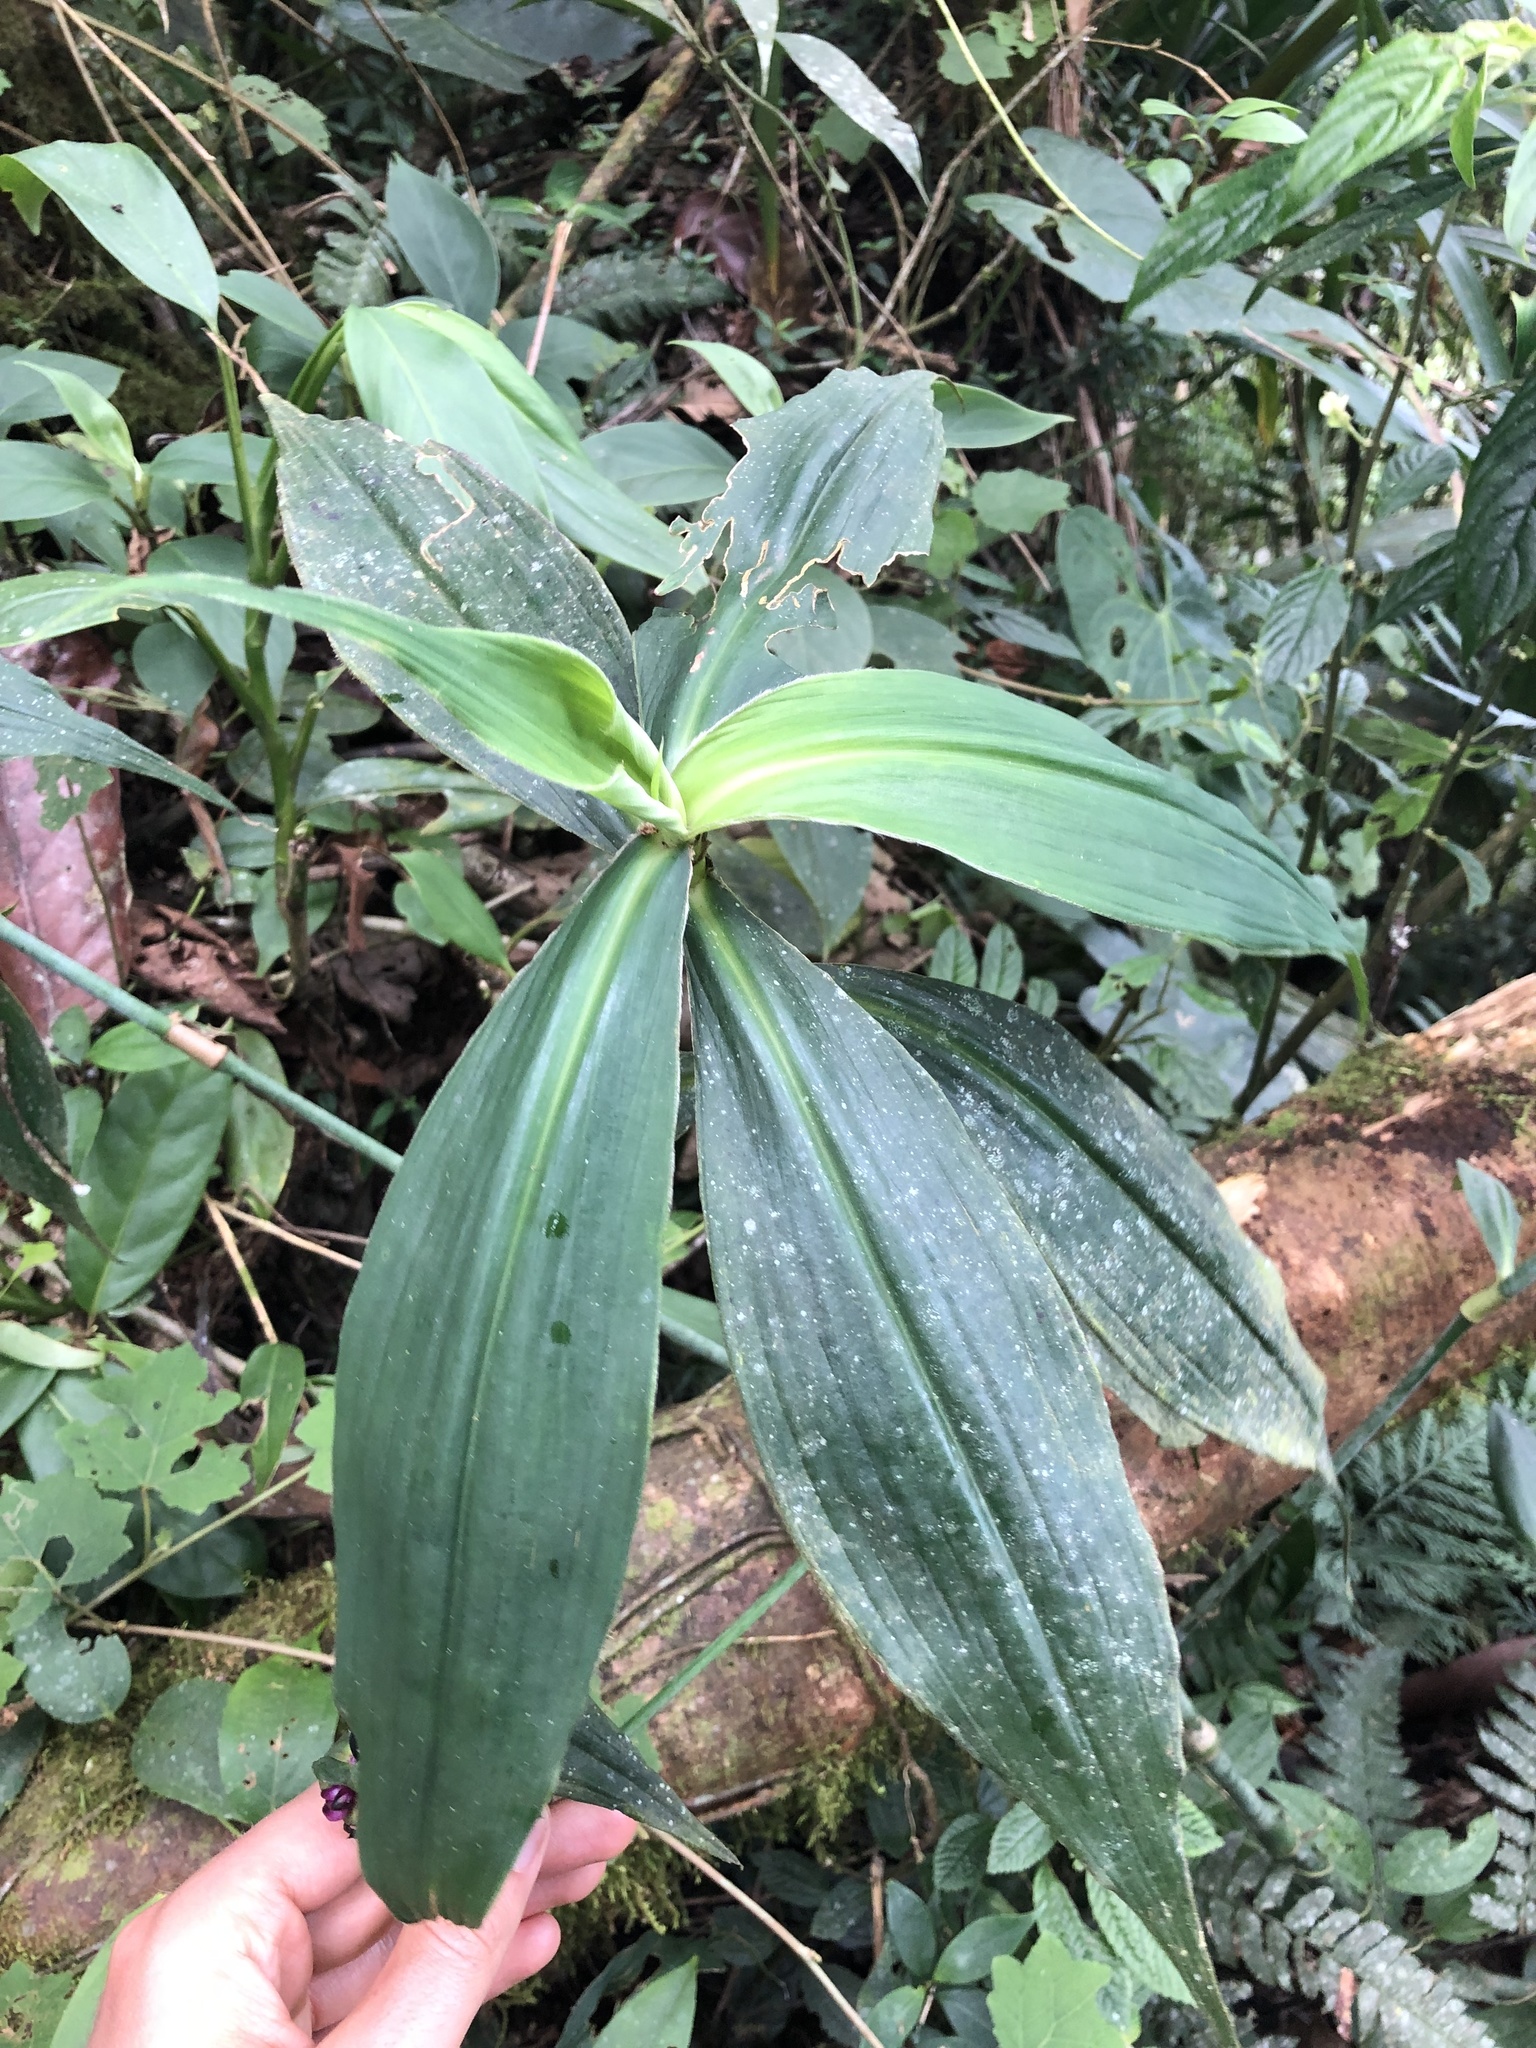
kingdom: Plantae
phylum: Tracheophyta
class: Liliopsida
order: Commelinales
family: Commelinaceae
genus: Tradescantia
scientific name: Tradescantia zanonia
